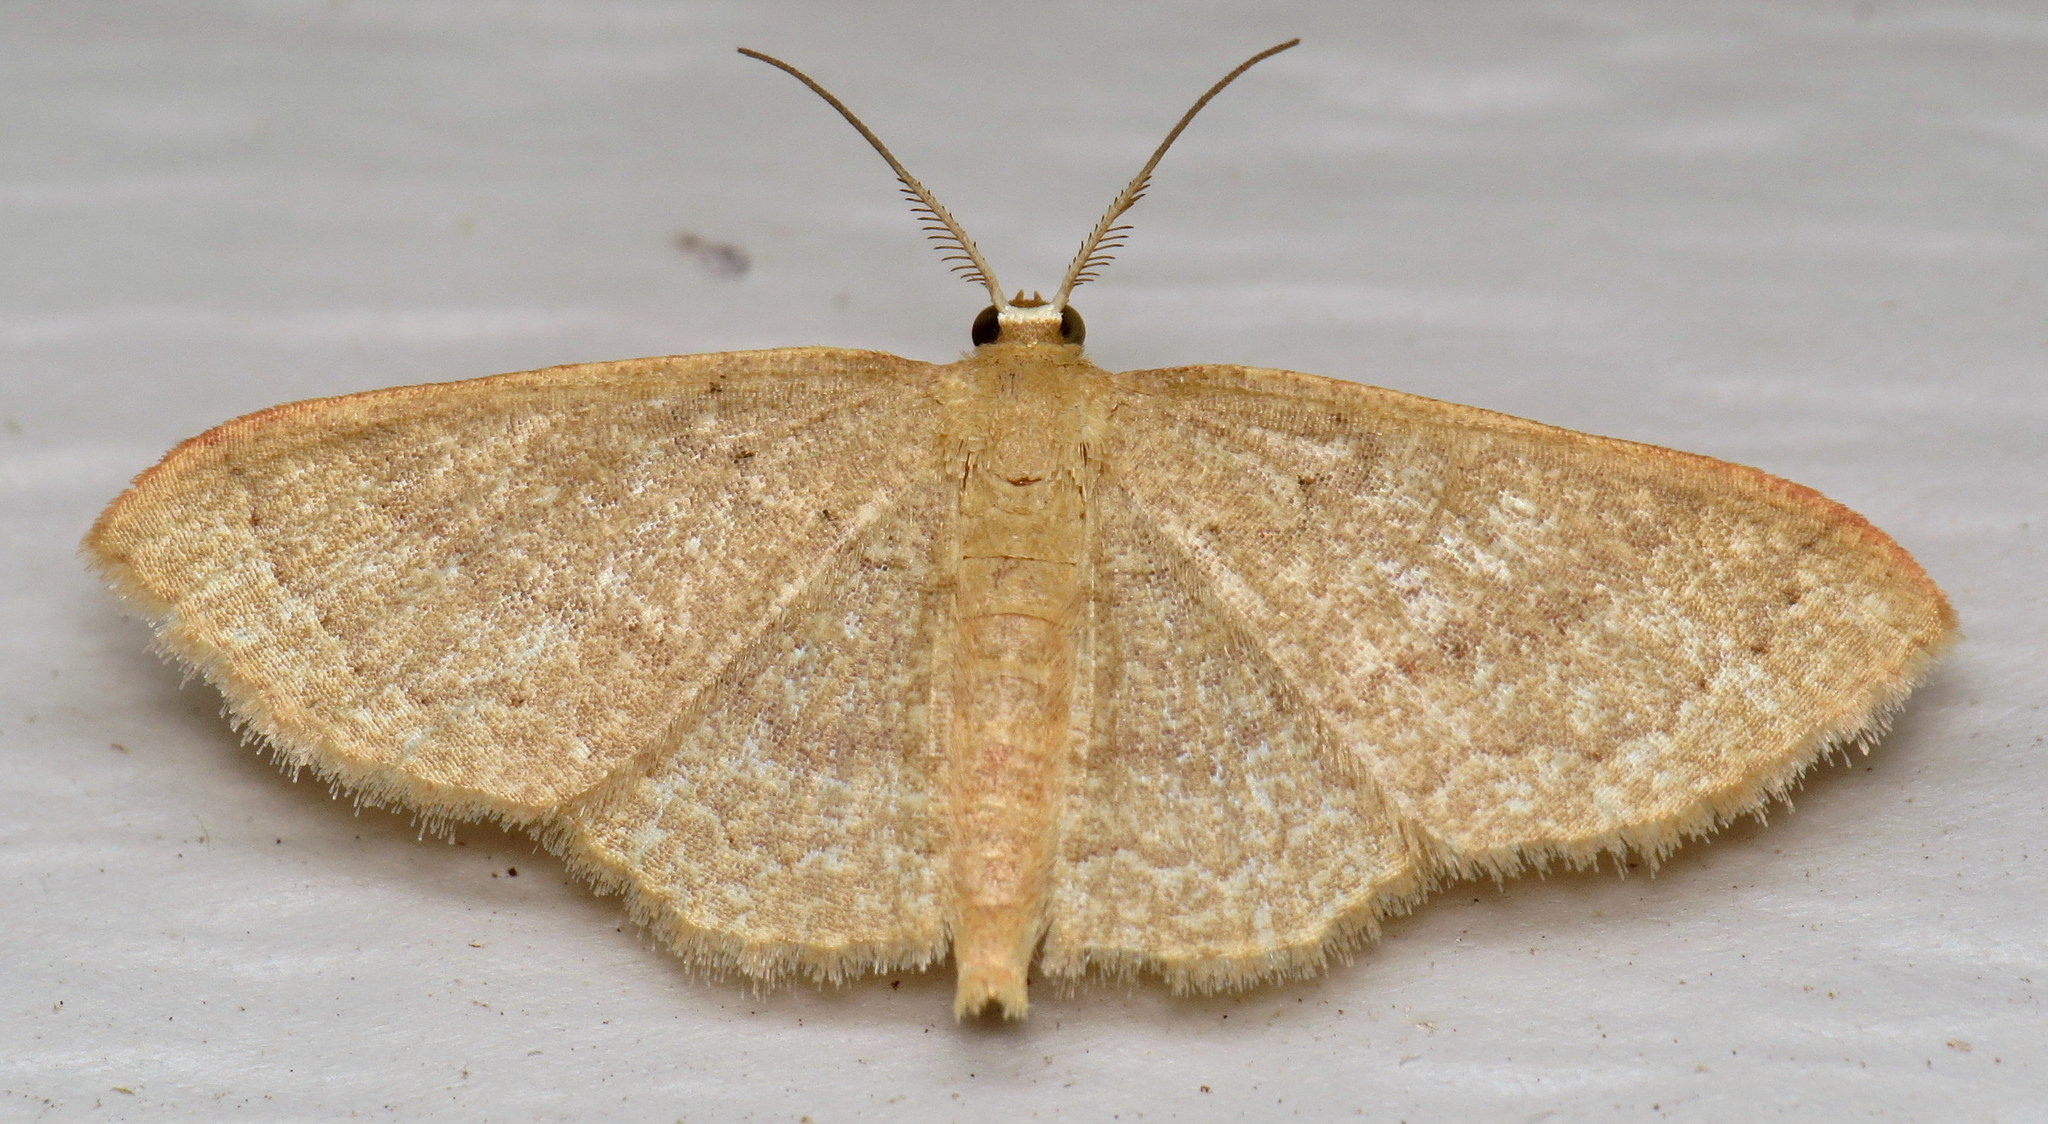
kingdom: Animalia
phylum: Arthropoda
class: Insecta
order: Lepidoptera
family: Geometridae
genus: Pleuroprucha
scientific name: Pleuroprucha insulsaria
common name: Common tan wave
